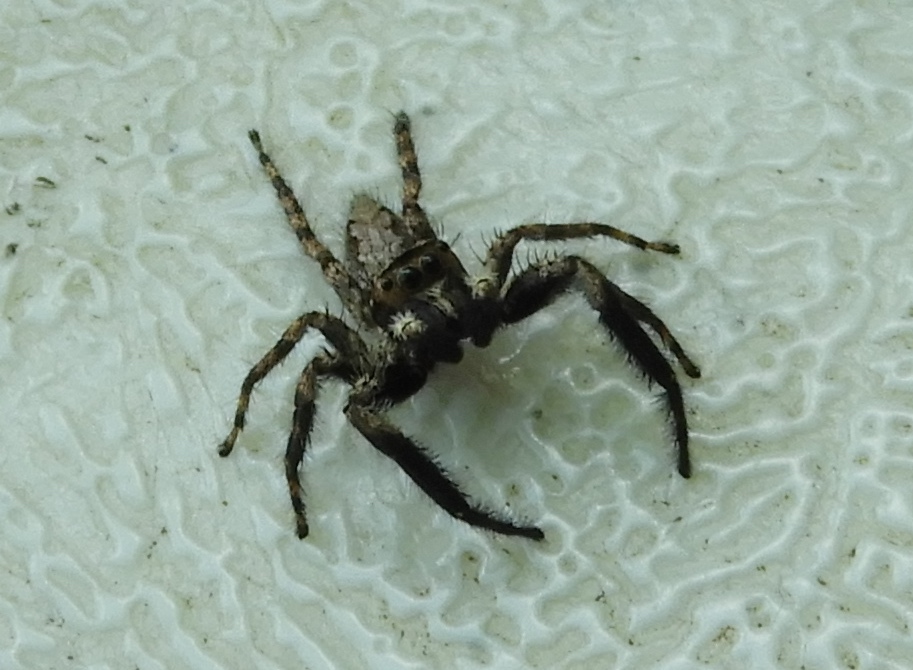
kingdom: Animalia
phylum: Arthropoda
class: Arachnida
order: Araneae
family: Salticidae
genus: Balmaceda
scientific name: Balmaceda
